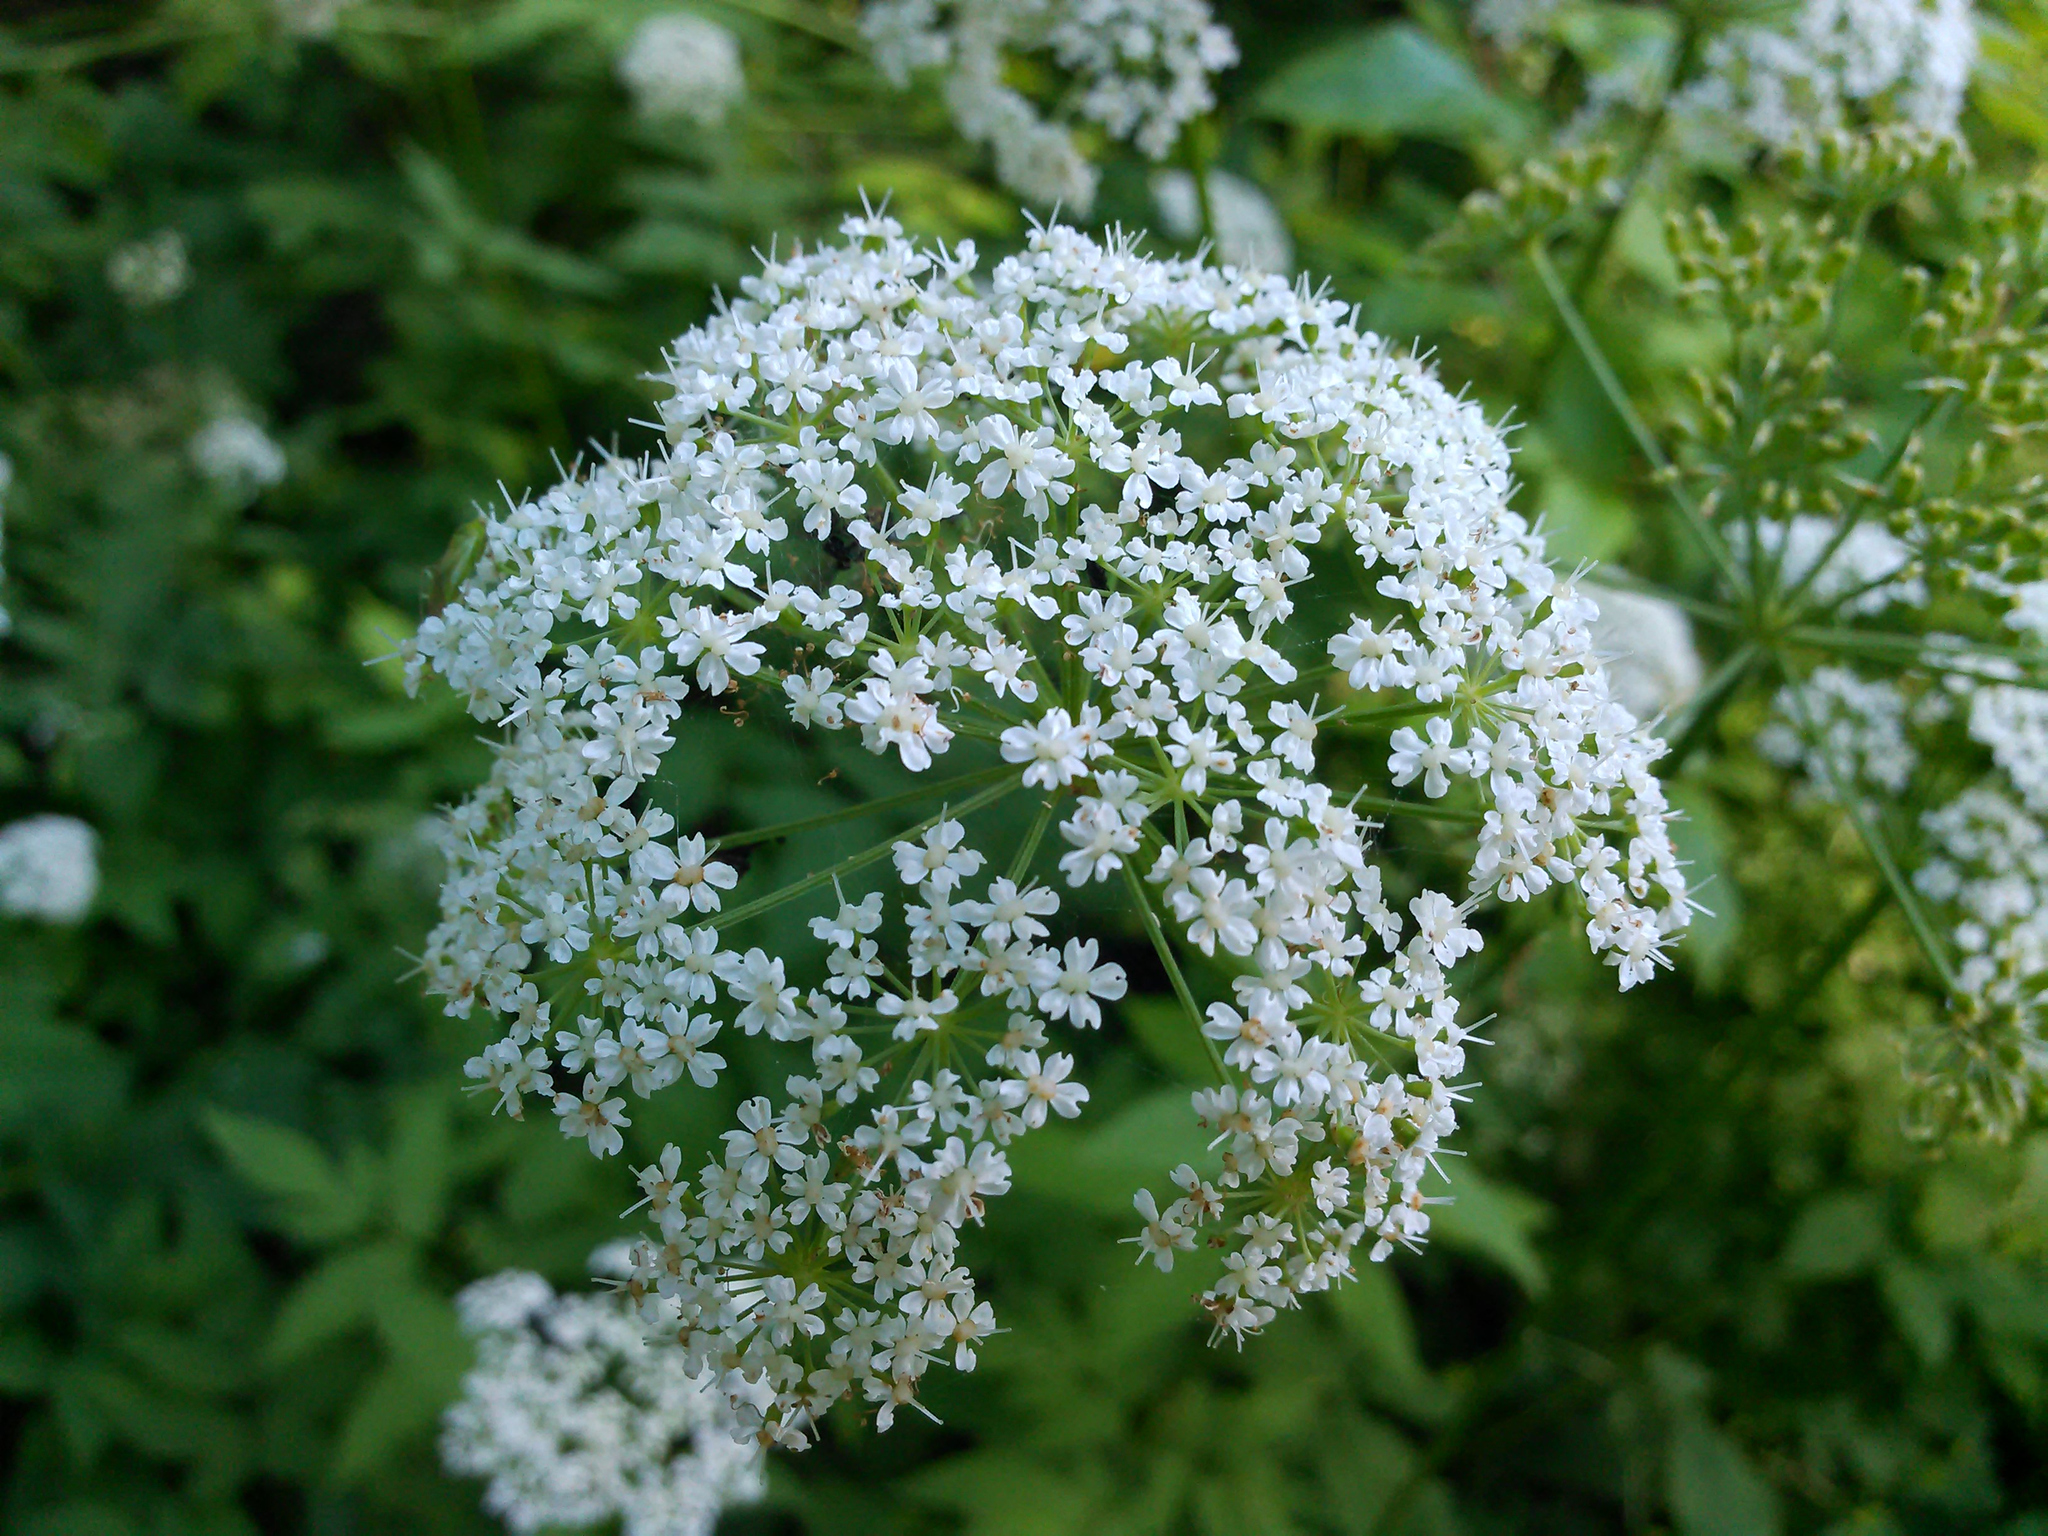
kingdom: Plantae
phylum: Tracheophyta
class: Magnoliopsida
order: Apiales
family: Apiaceae
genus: Aegopodium
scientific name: Aegopodium podagraria
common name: Ground-elder
